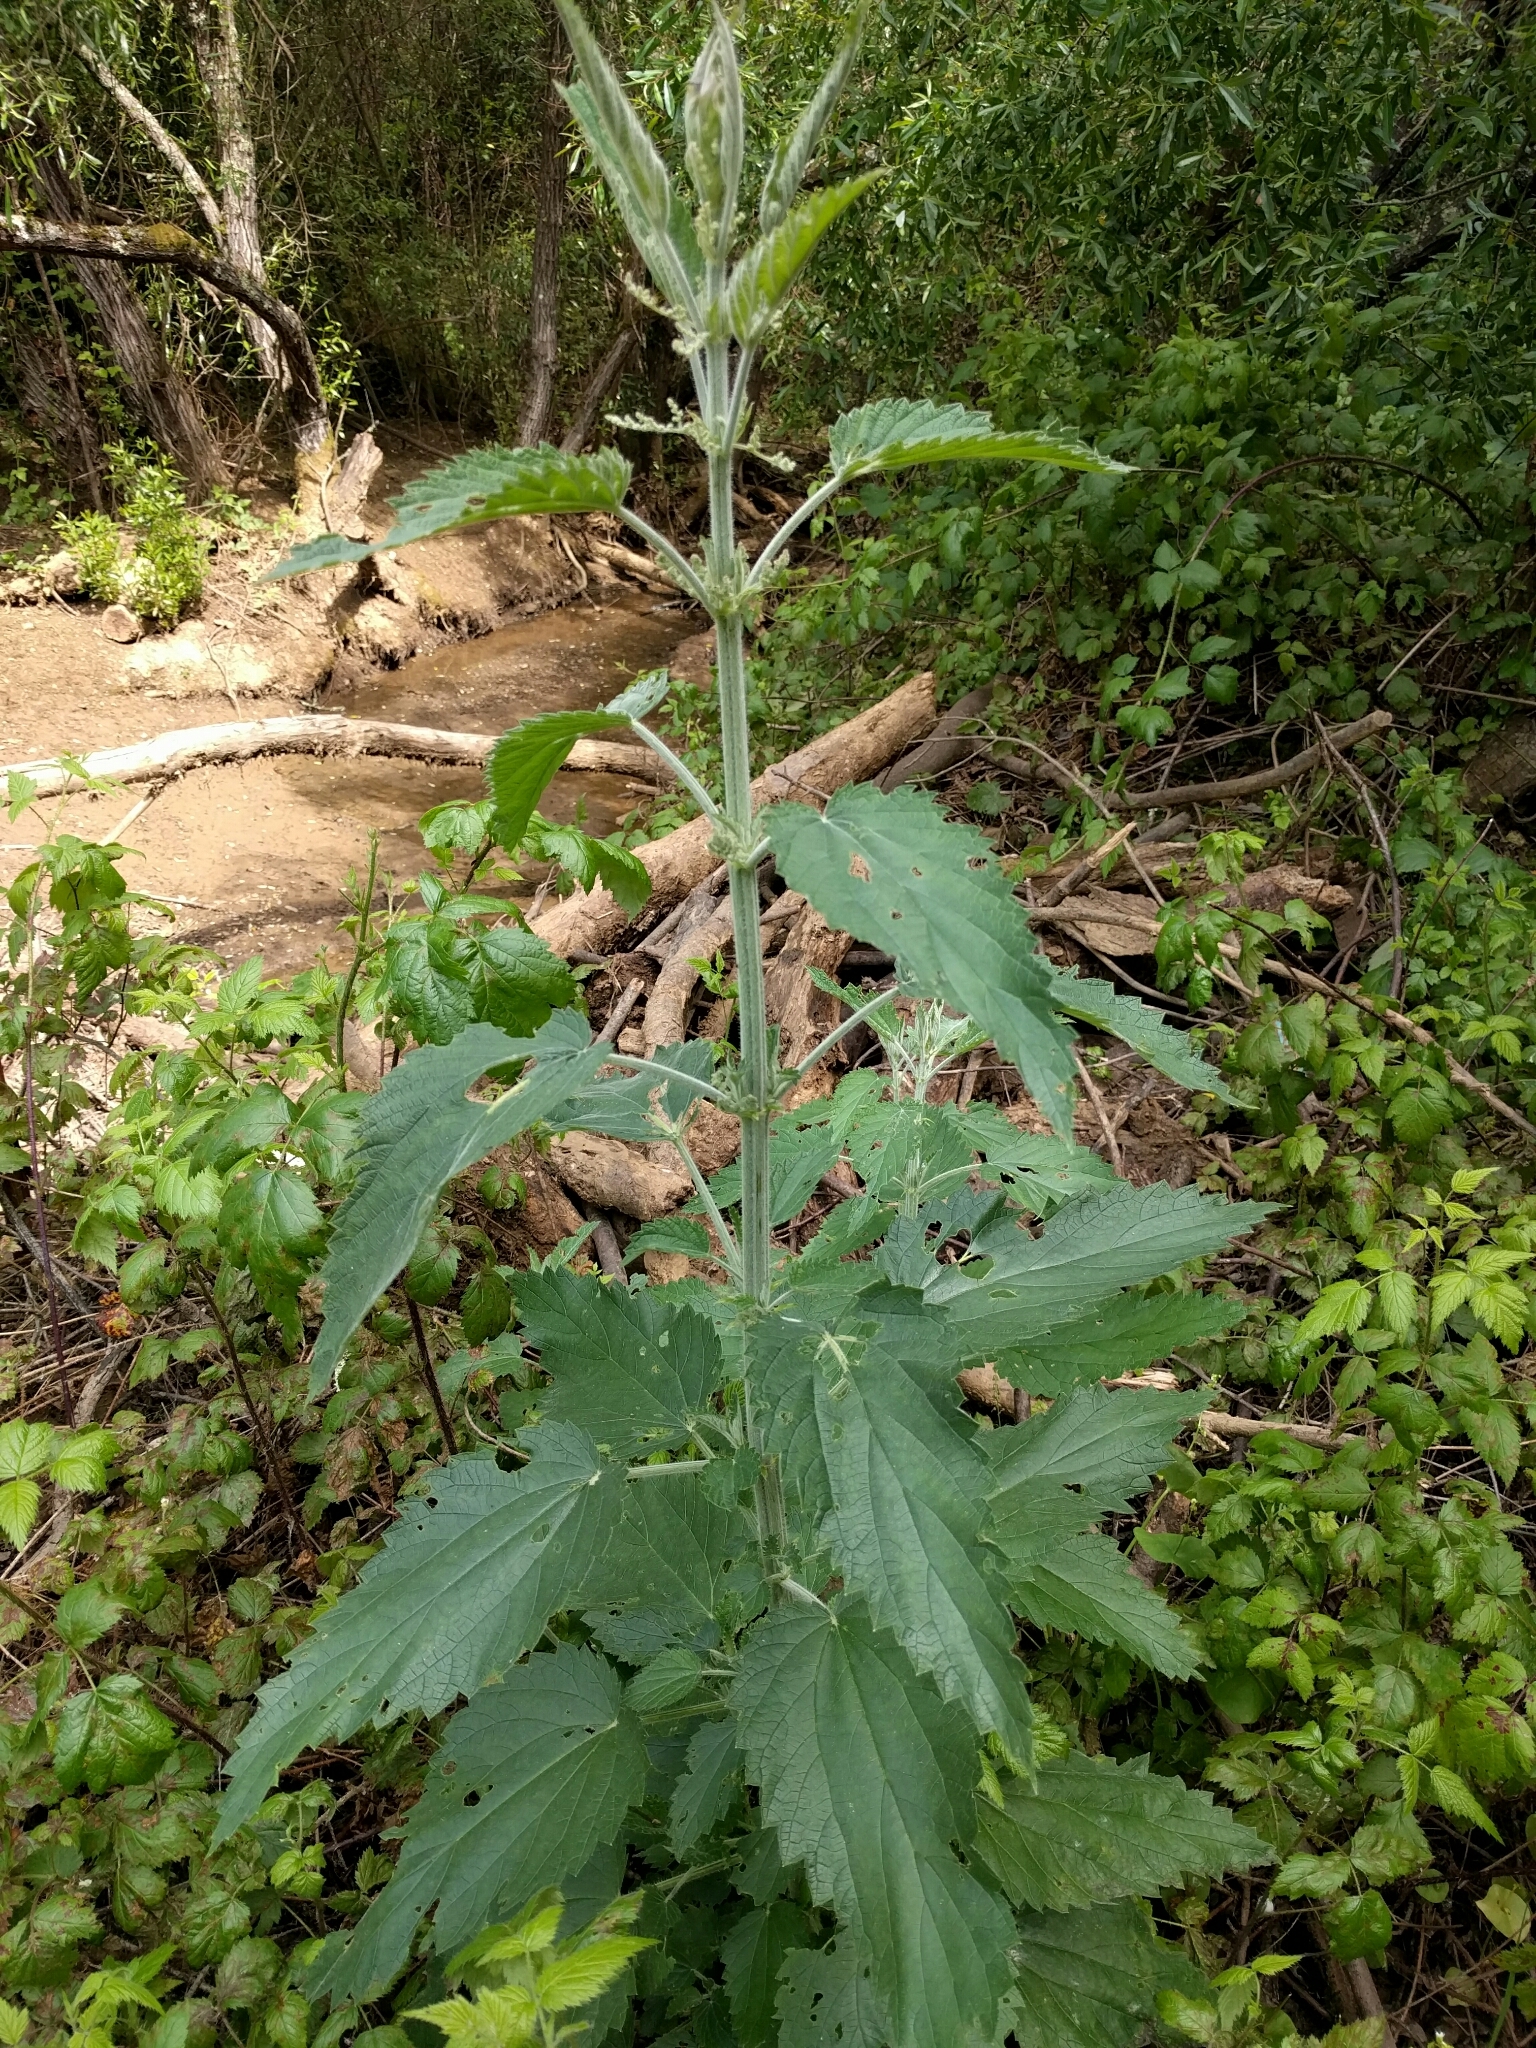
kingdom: Plantae
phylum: Tracheophyta
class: Magnoliopsida
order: Rosales
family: Urticaceae
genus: Urtica
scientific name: Urtica dioica
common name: Common nettle
